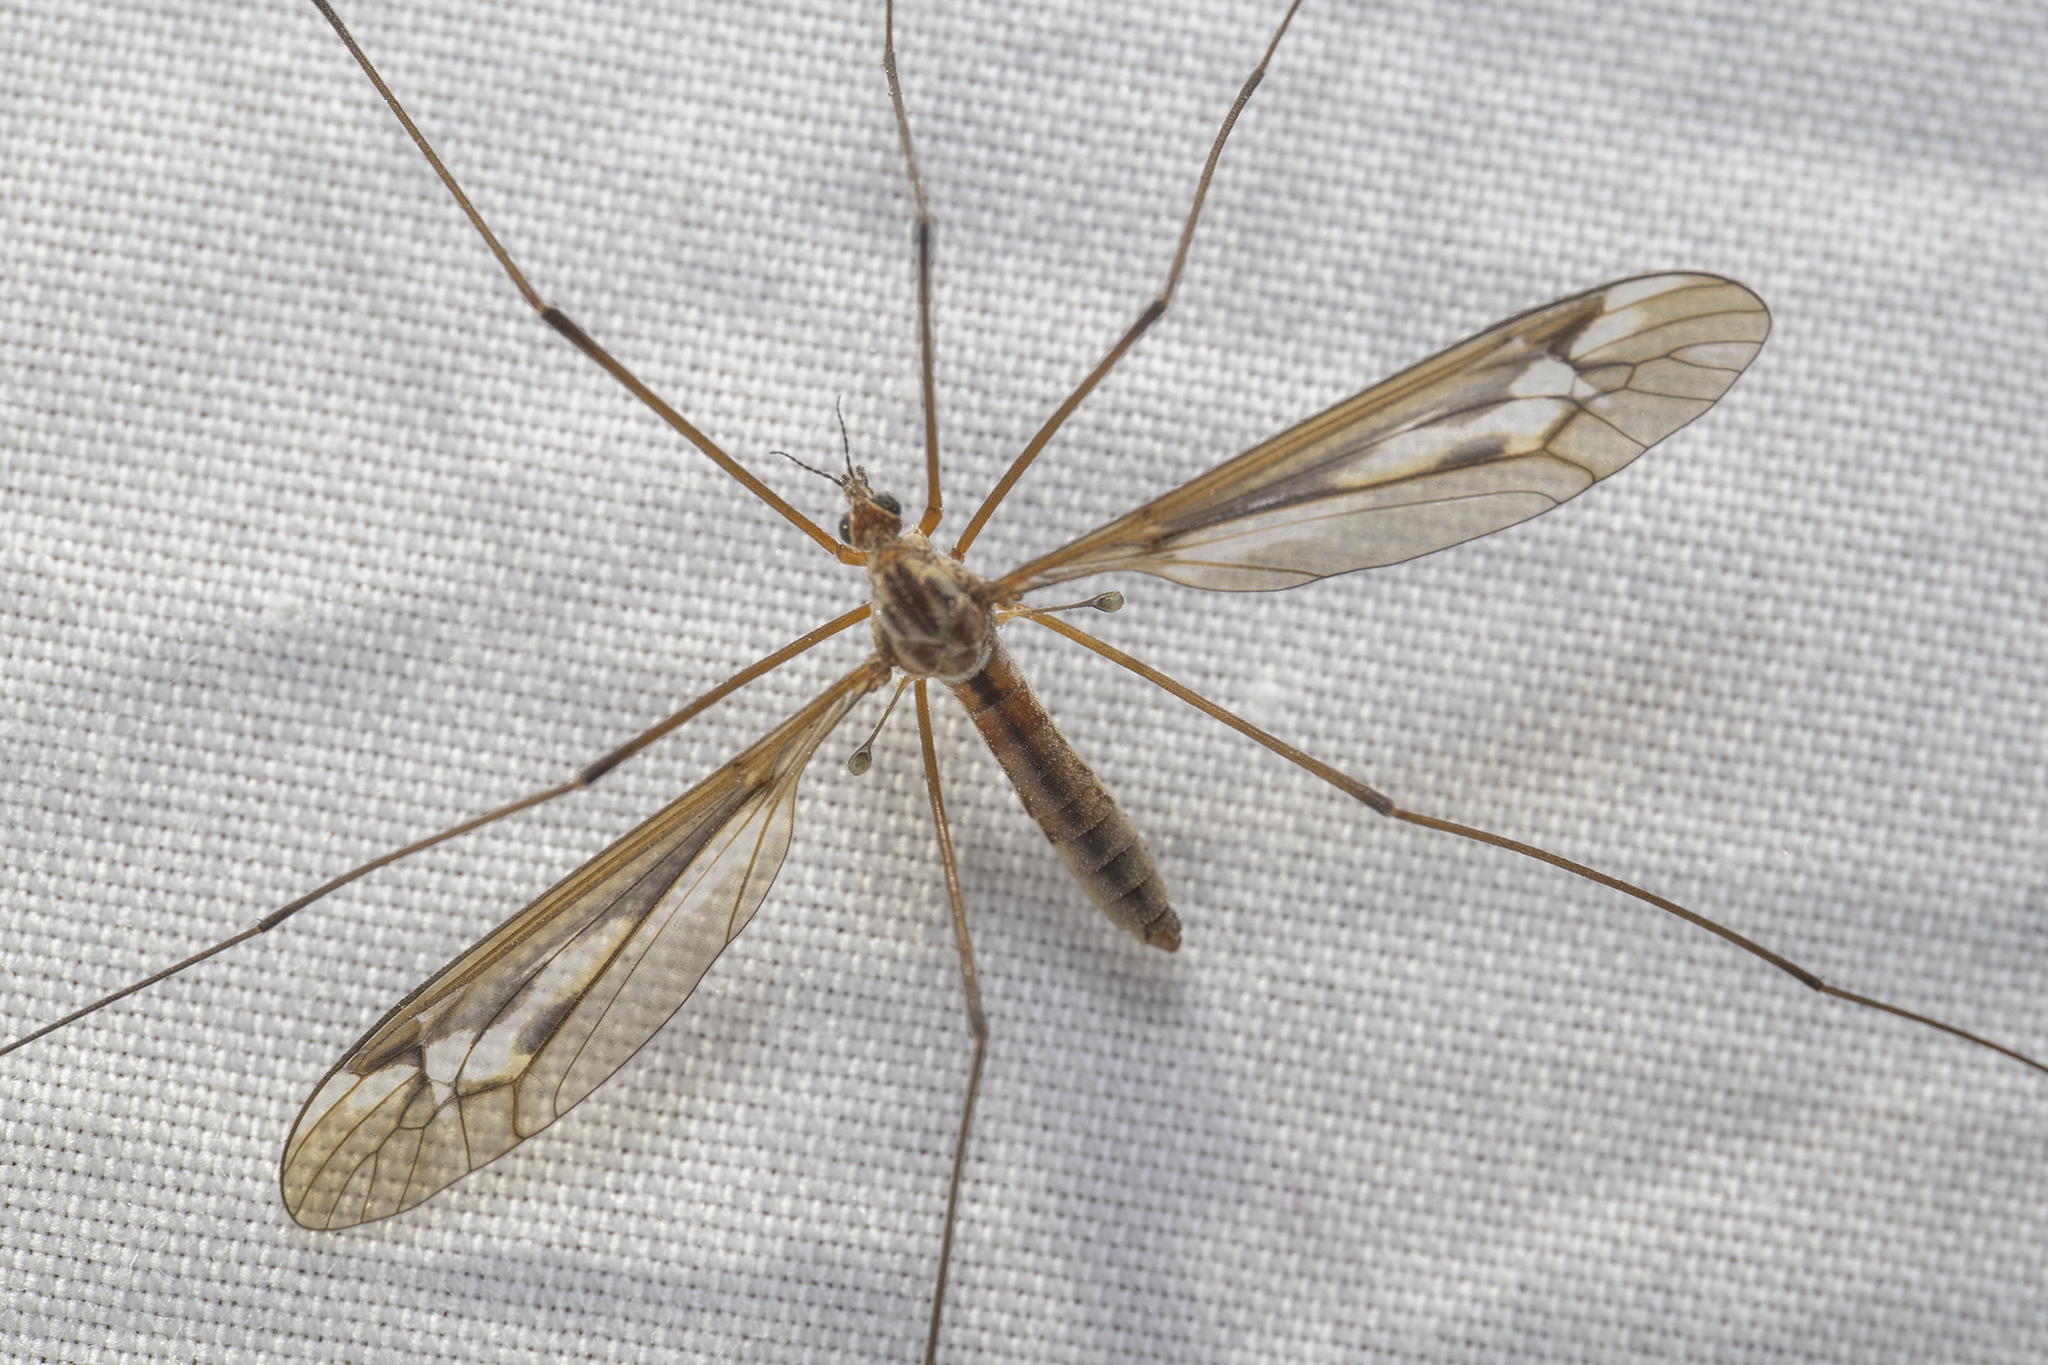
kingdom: Animalia
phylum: Arthropoda
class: Insecta
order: Diptera
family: Tipulidae
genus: Leptotarsus
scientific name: Leptotarsus alexanderi
